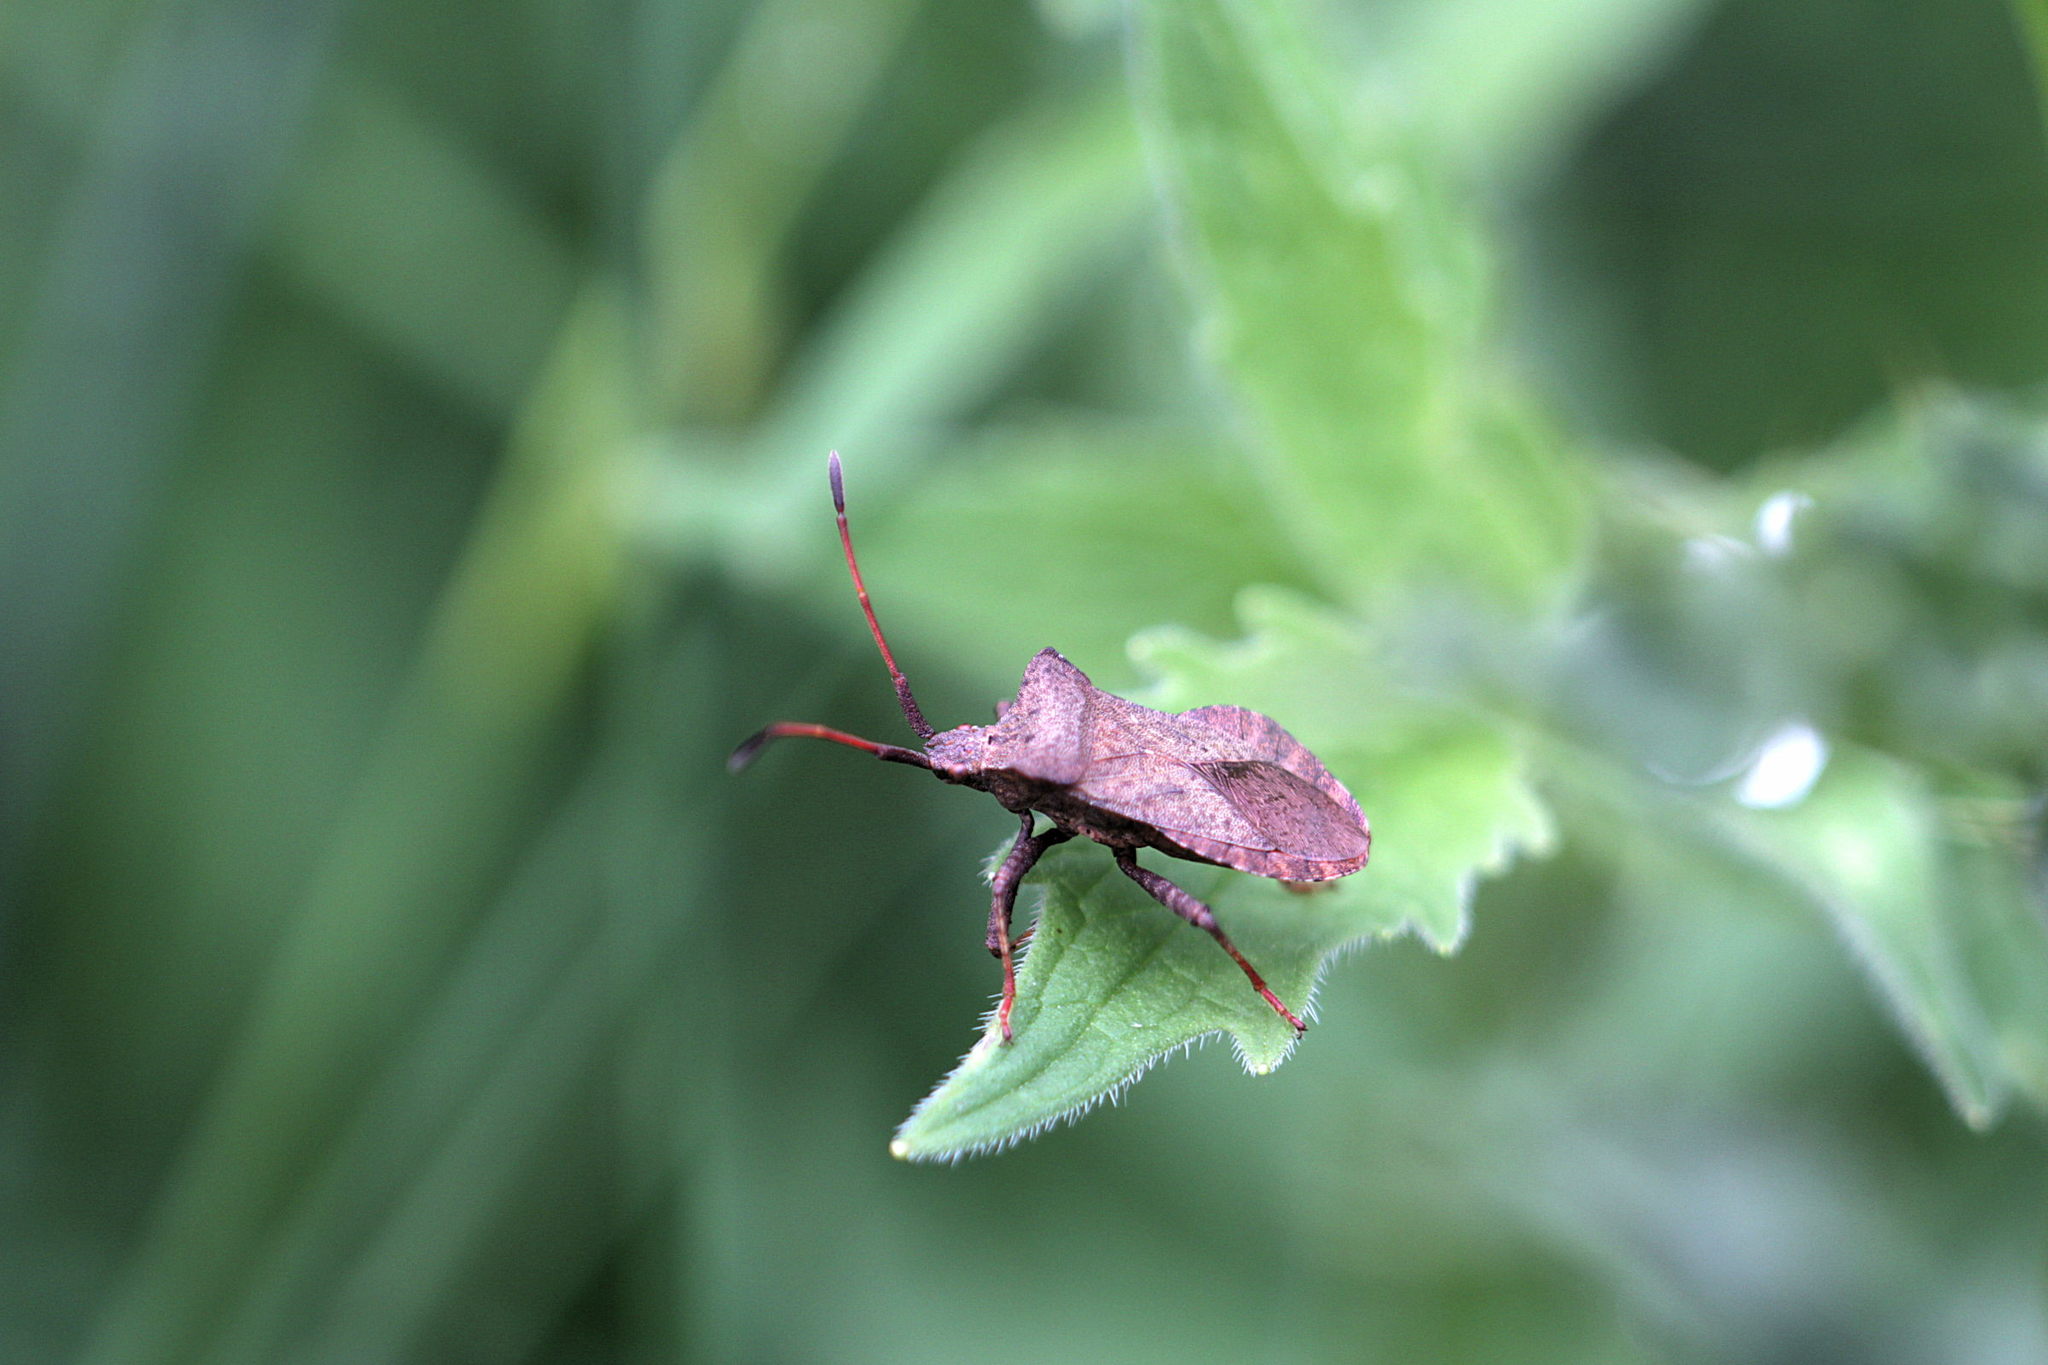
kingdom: Animalia
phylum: Arthropoda
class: Insecta
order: Hemiptera
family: Coreidae
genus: Coreus
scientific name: Coreus marginatus
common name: Dock bug
